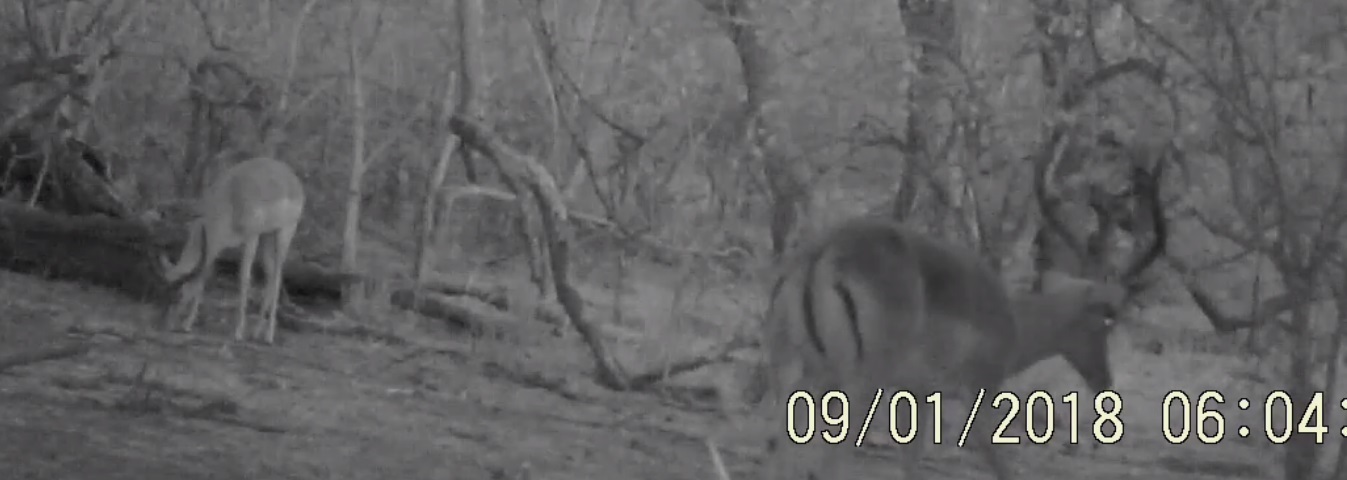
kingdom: Animalia
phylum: Chordata
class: Mammalia
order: Artiodactyla
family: Bovidae
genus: Aepyceros
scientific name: Aepyceros melampus
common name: Impala
